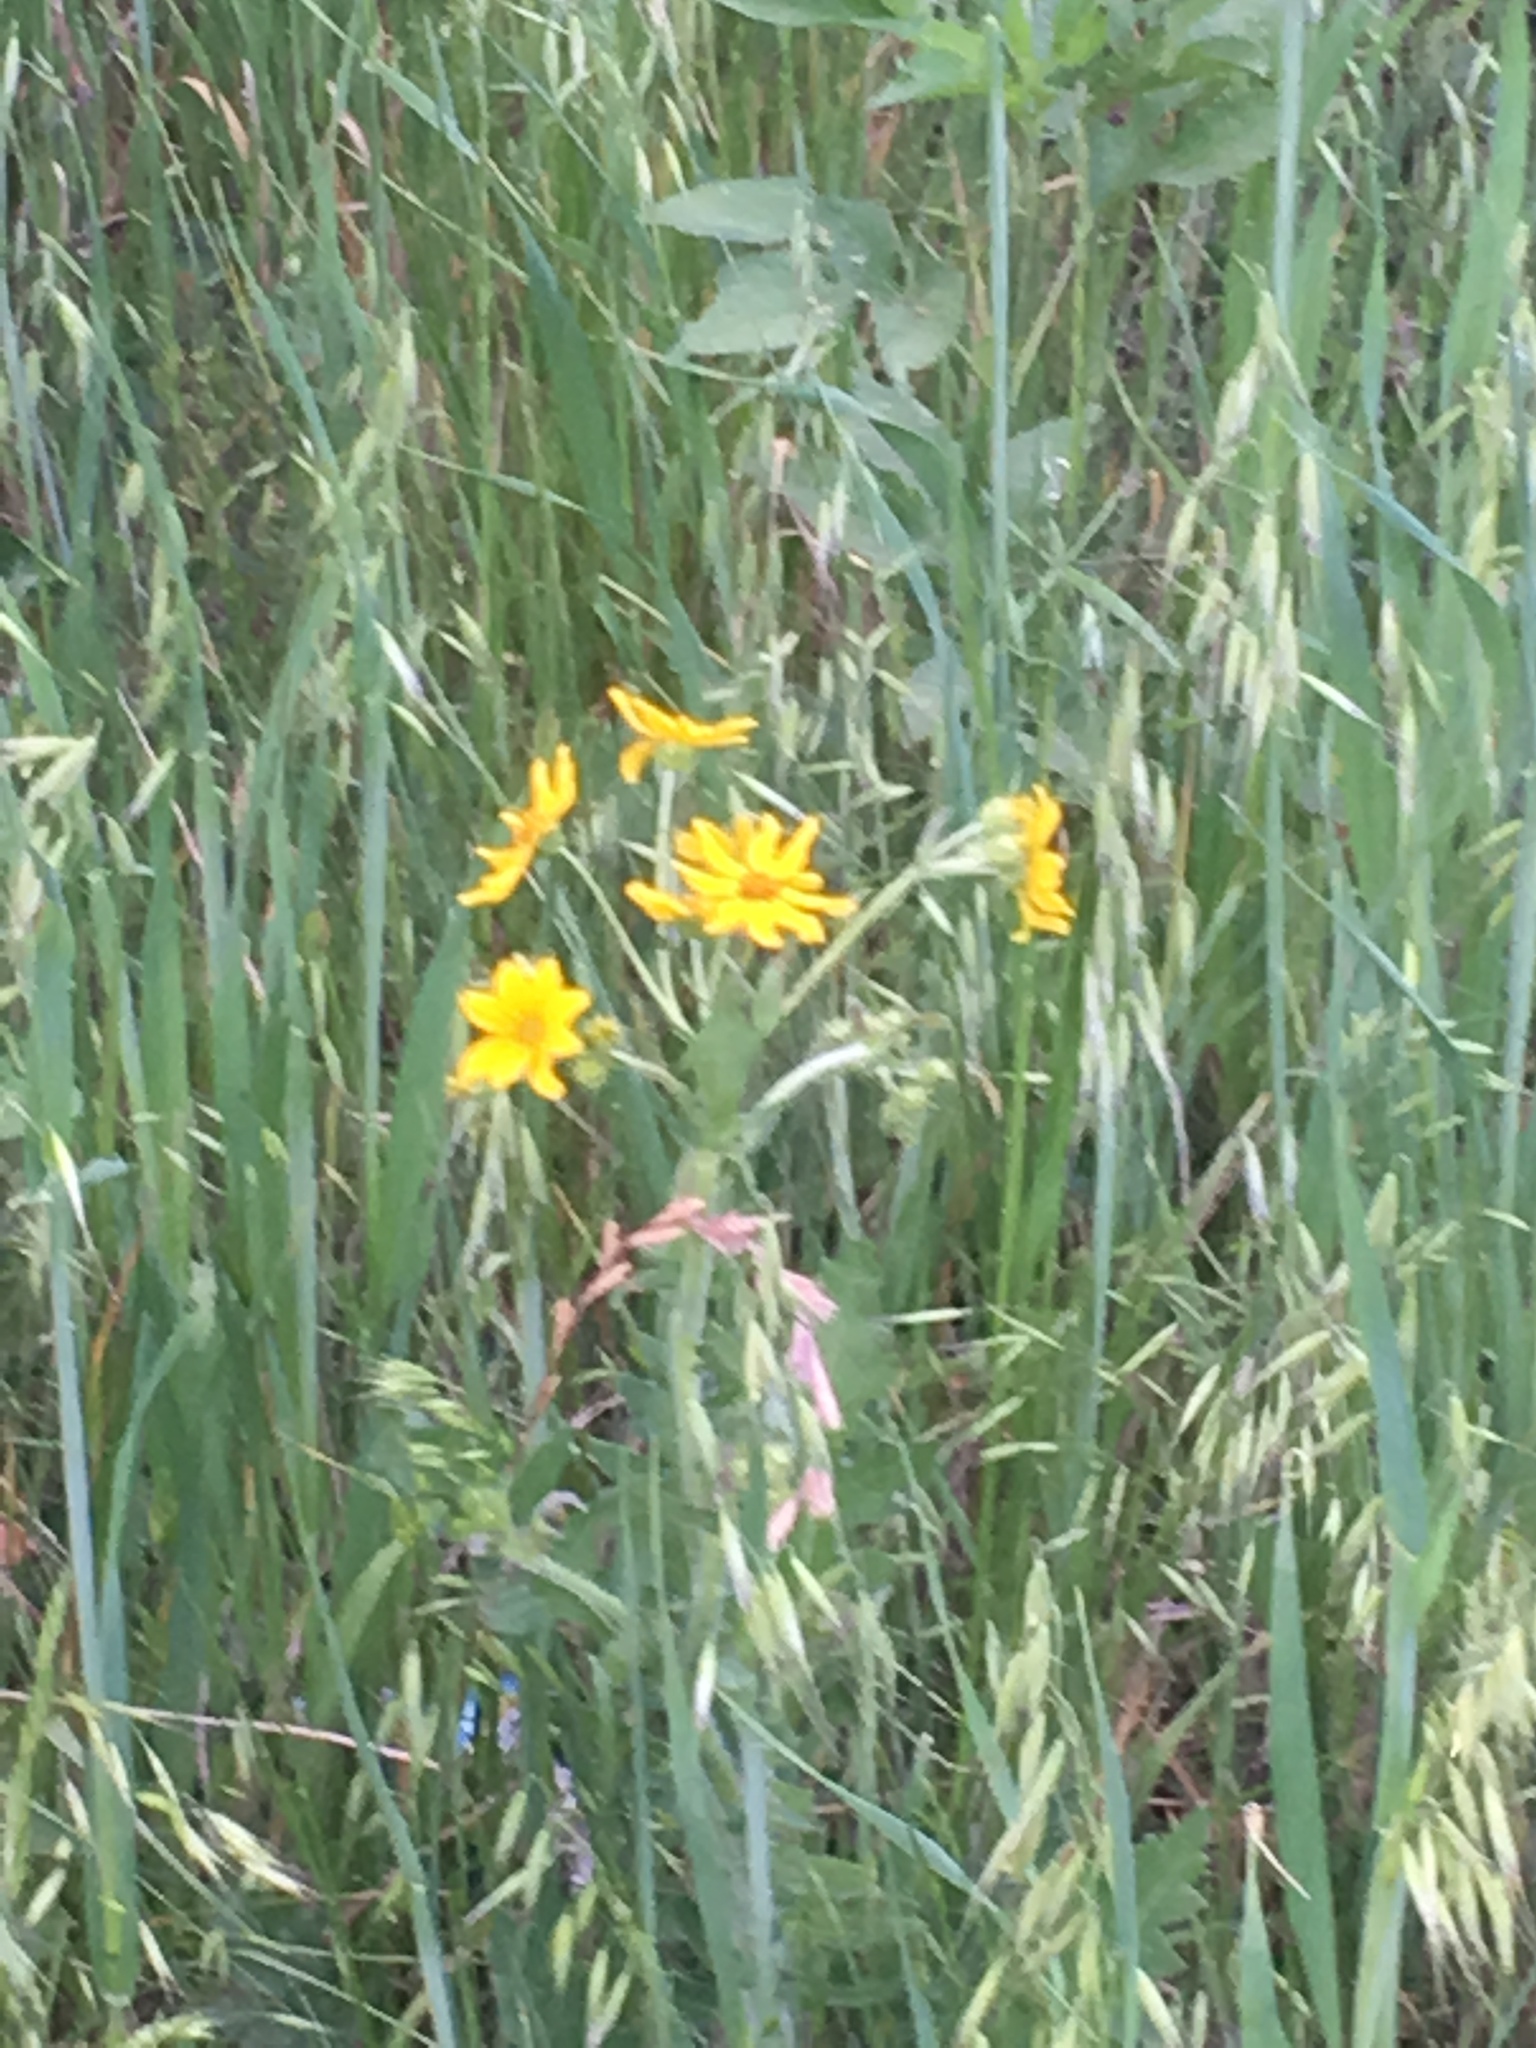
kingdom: Plantae
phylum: Tracheophyta
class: Magnoliopsida
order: Asterales
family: Asteraceae
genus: Engelmannia
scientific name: Engelmannia peristenia
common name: Engelmann's daisy
